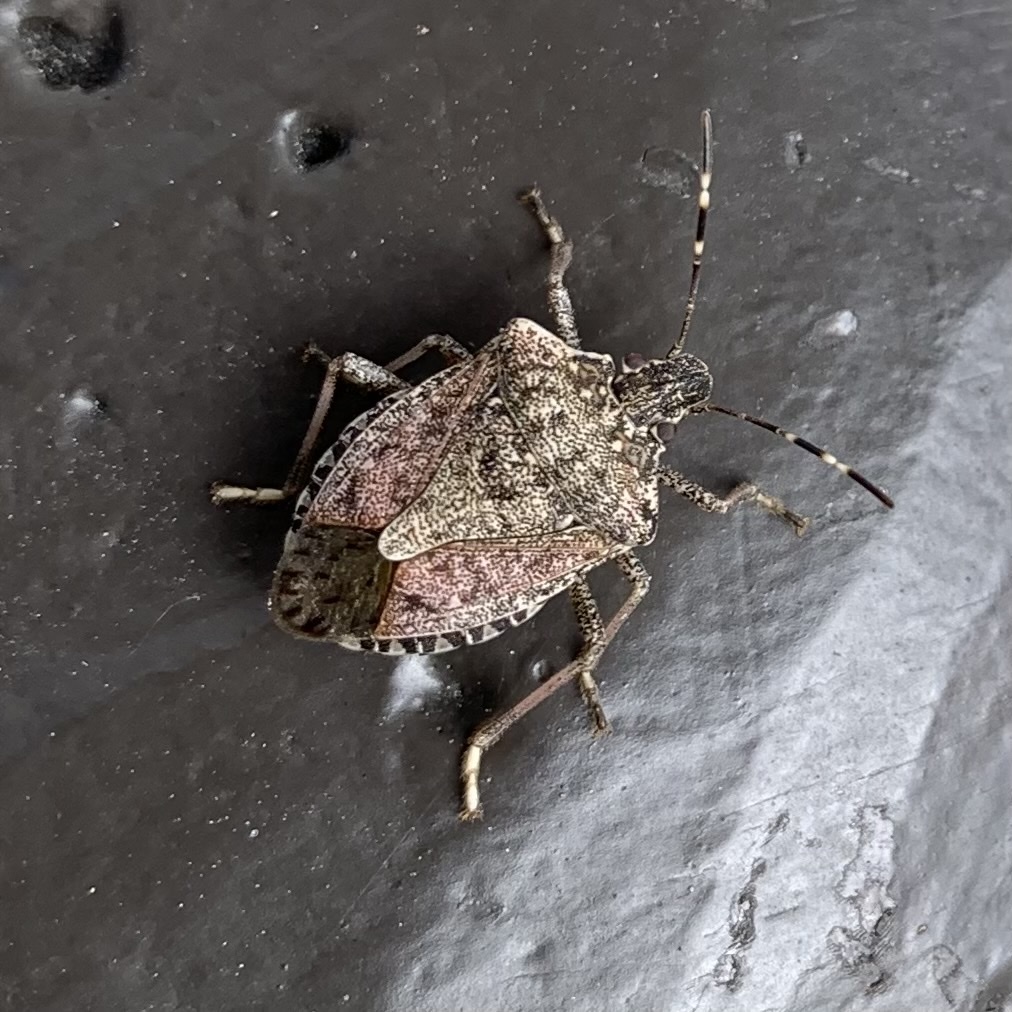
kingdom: Animalia
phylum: Arthropoda
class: Insecta
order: Hemiptera
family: Pentatomidae
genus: Halyomorpha
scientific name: Halyomorpha halys
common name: Brown marmorated stink bug
